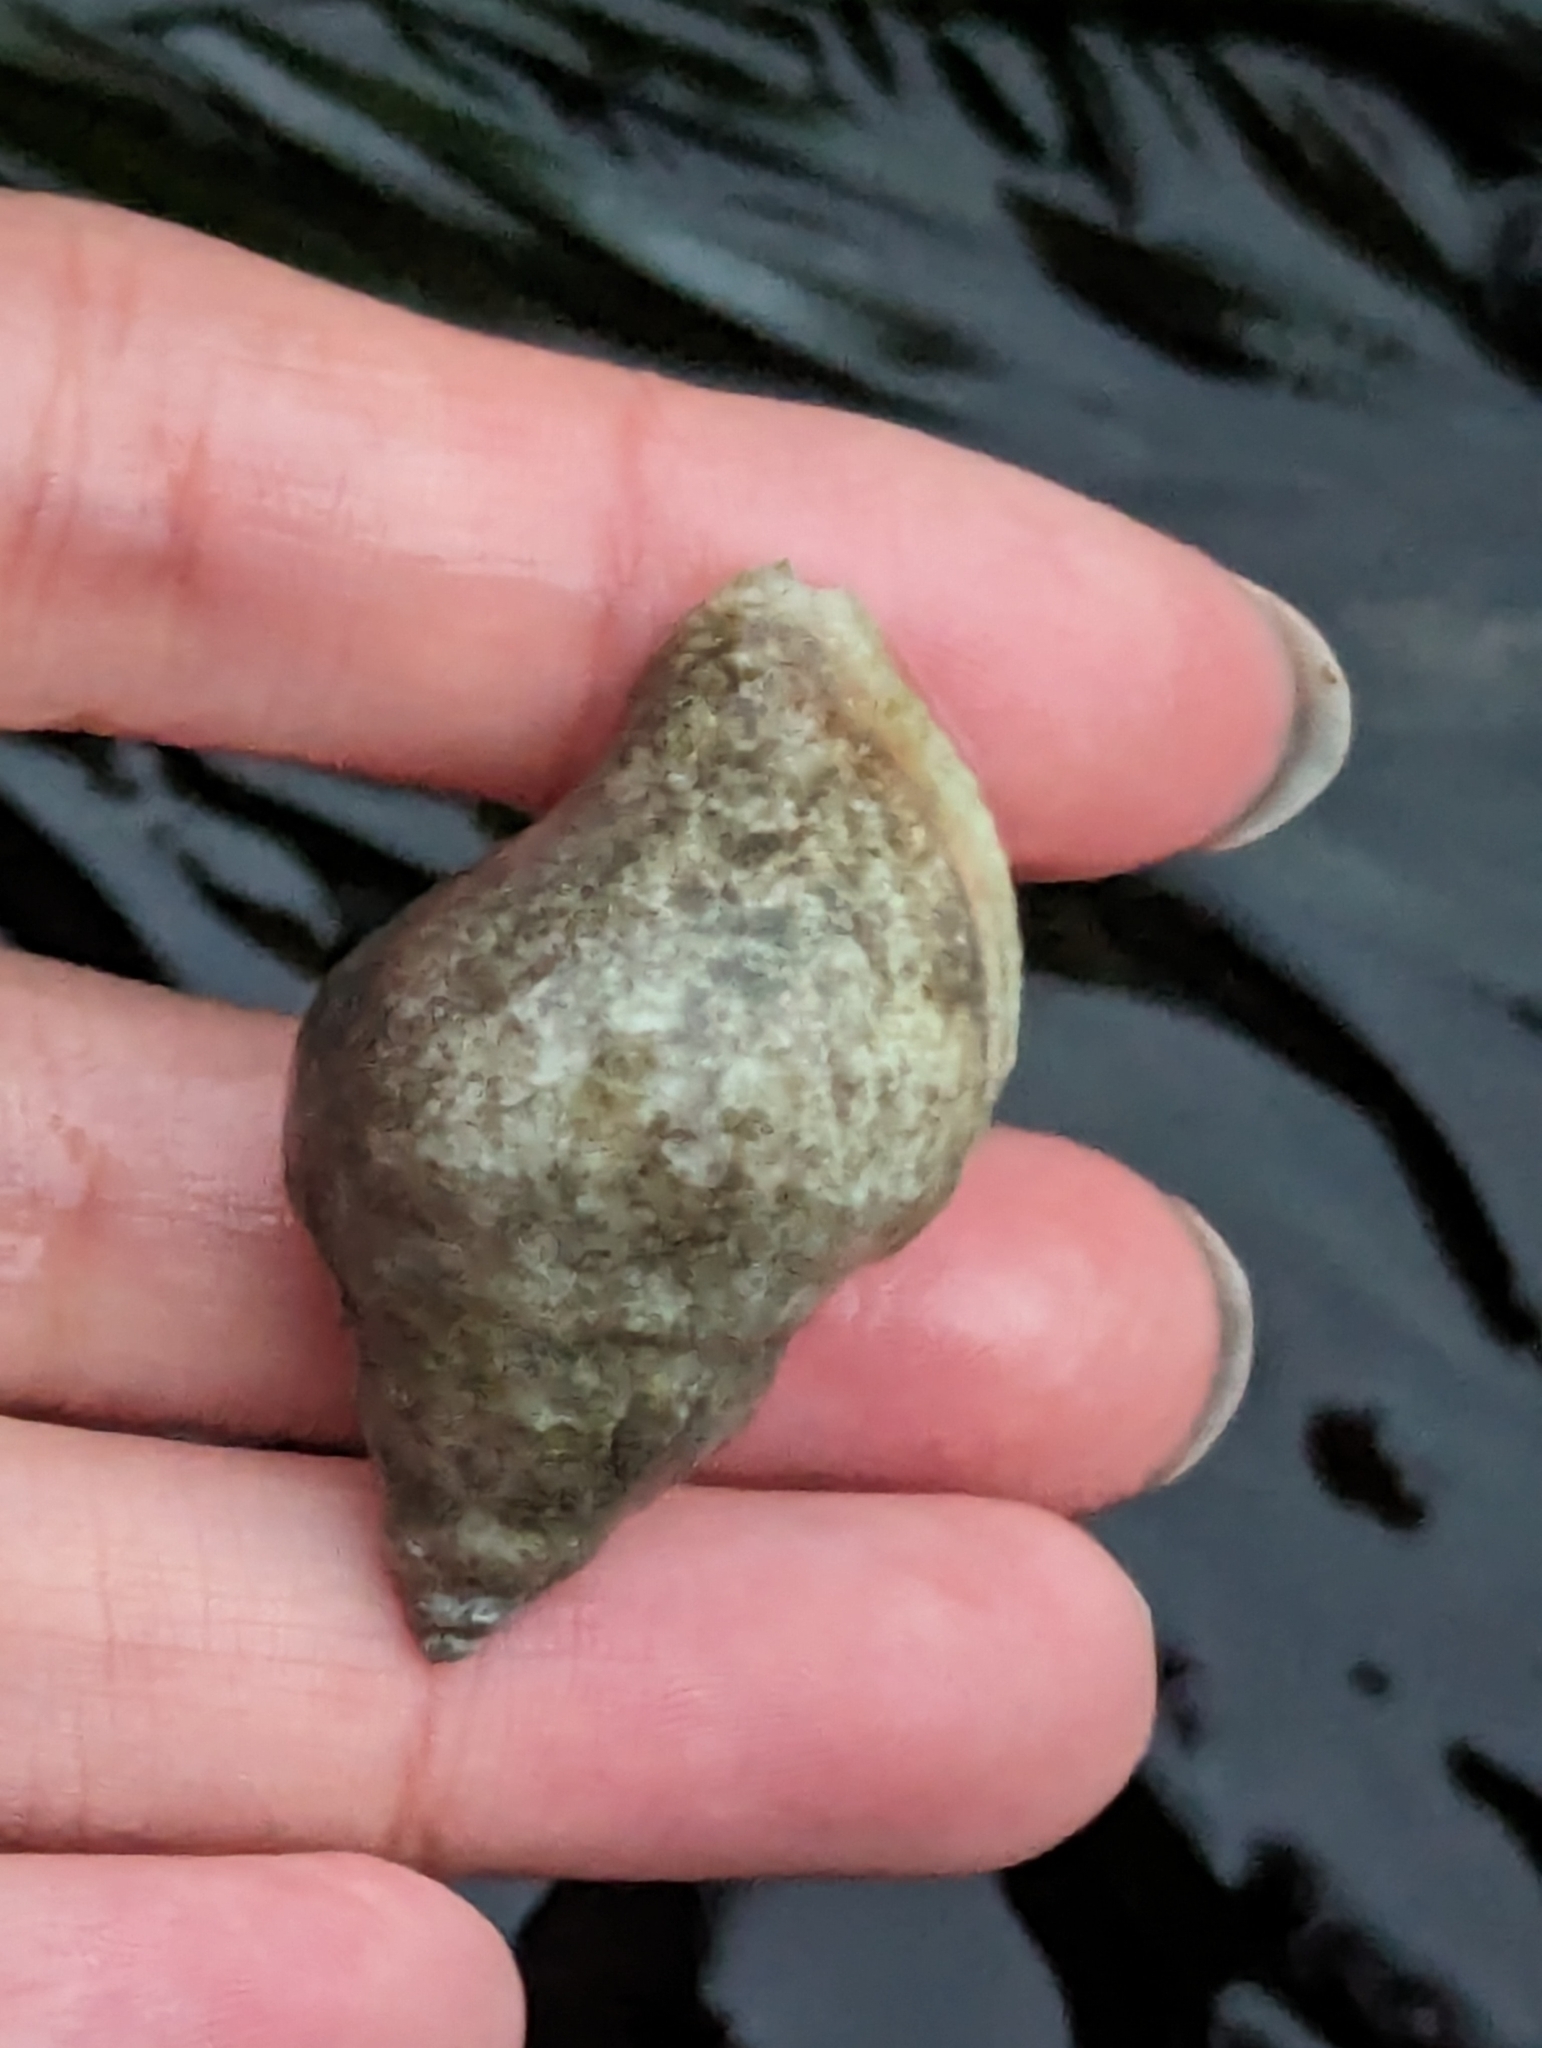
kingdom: Animalia
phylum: Mollusca
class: Gastropoda
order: Neogastropoda
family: Muricidae
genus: Nucella
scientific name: Nucella lamellosa
